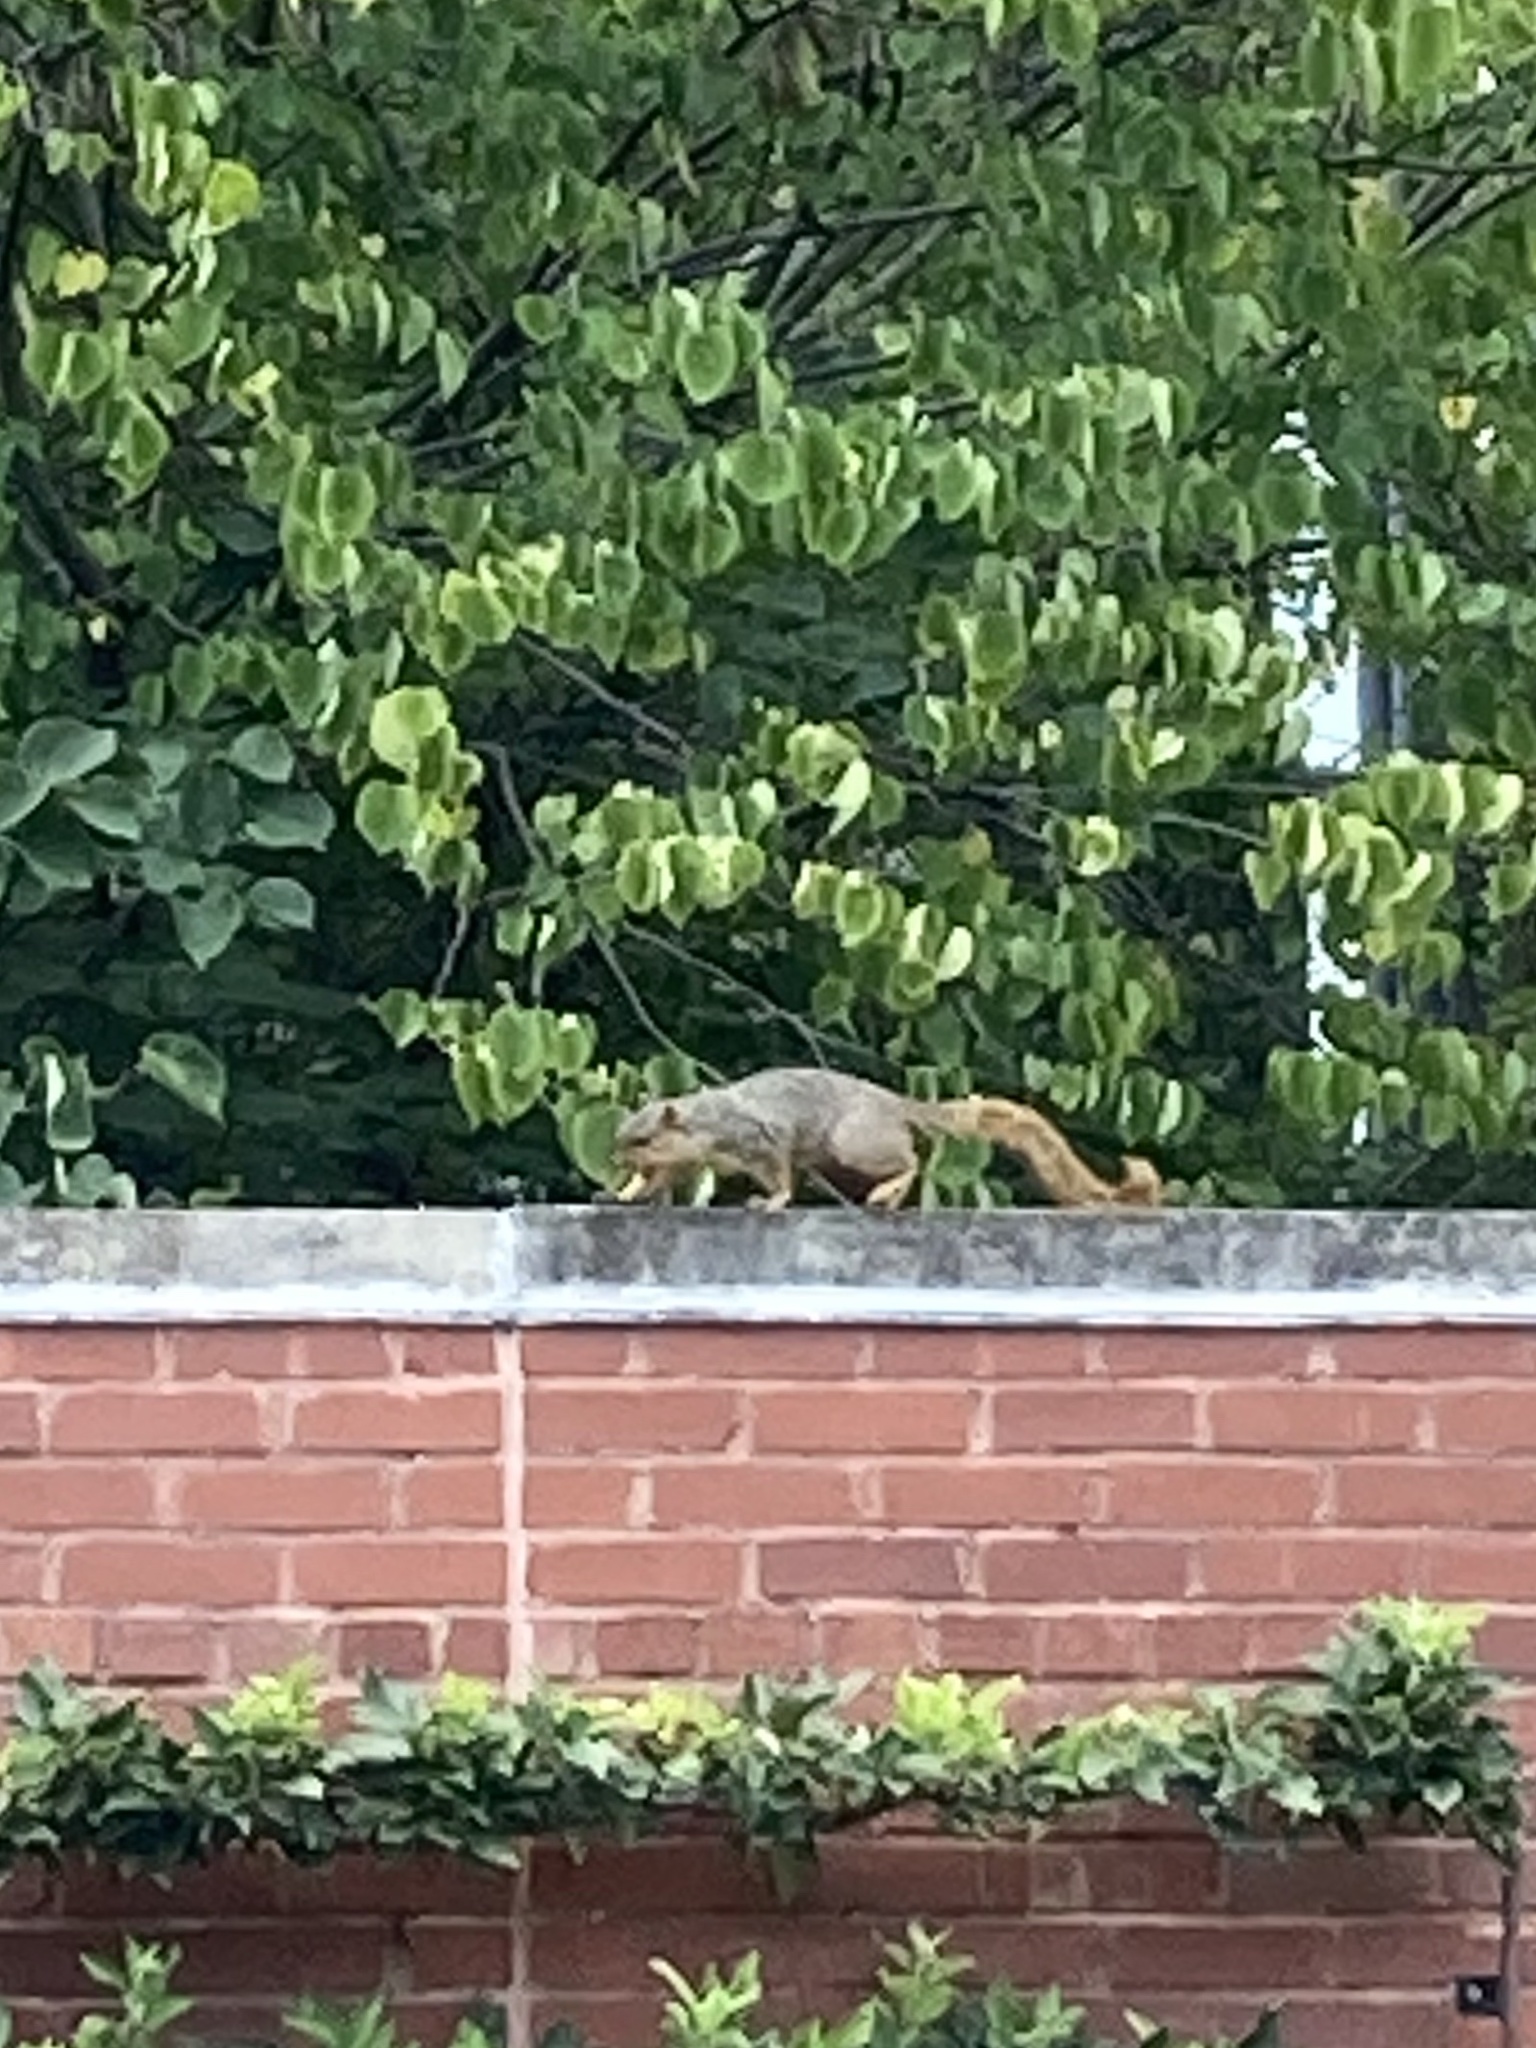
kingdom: Animalia
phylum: Chordata
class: Mammalia
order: Rodentia
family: Sciuridae
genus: Sciurus
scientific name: Sciurus niger
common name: Fox squirrel
